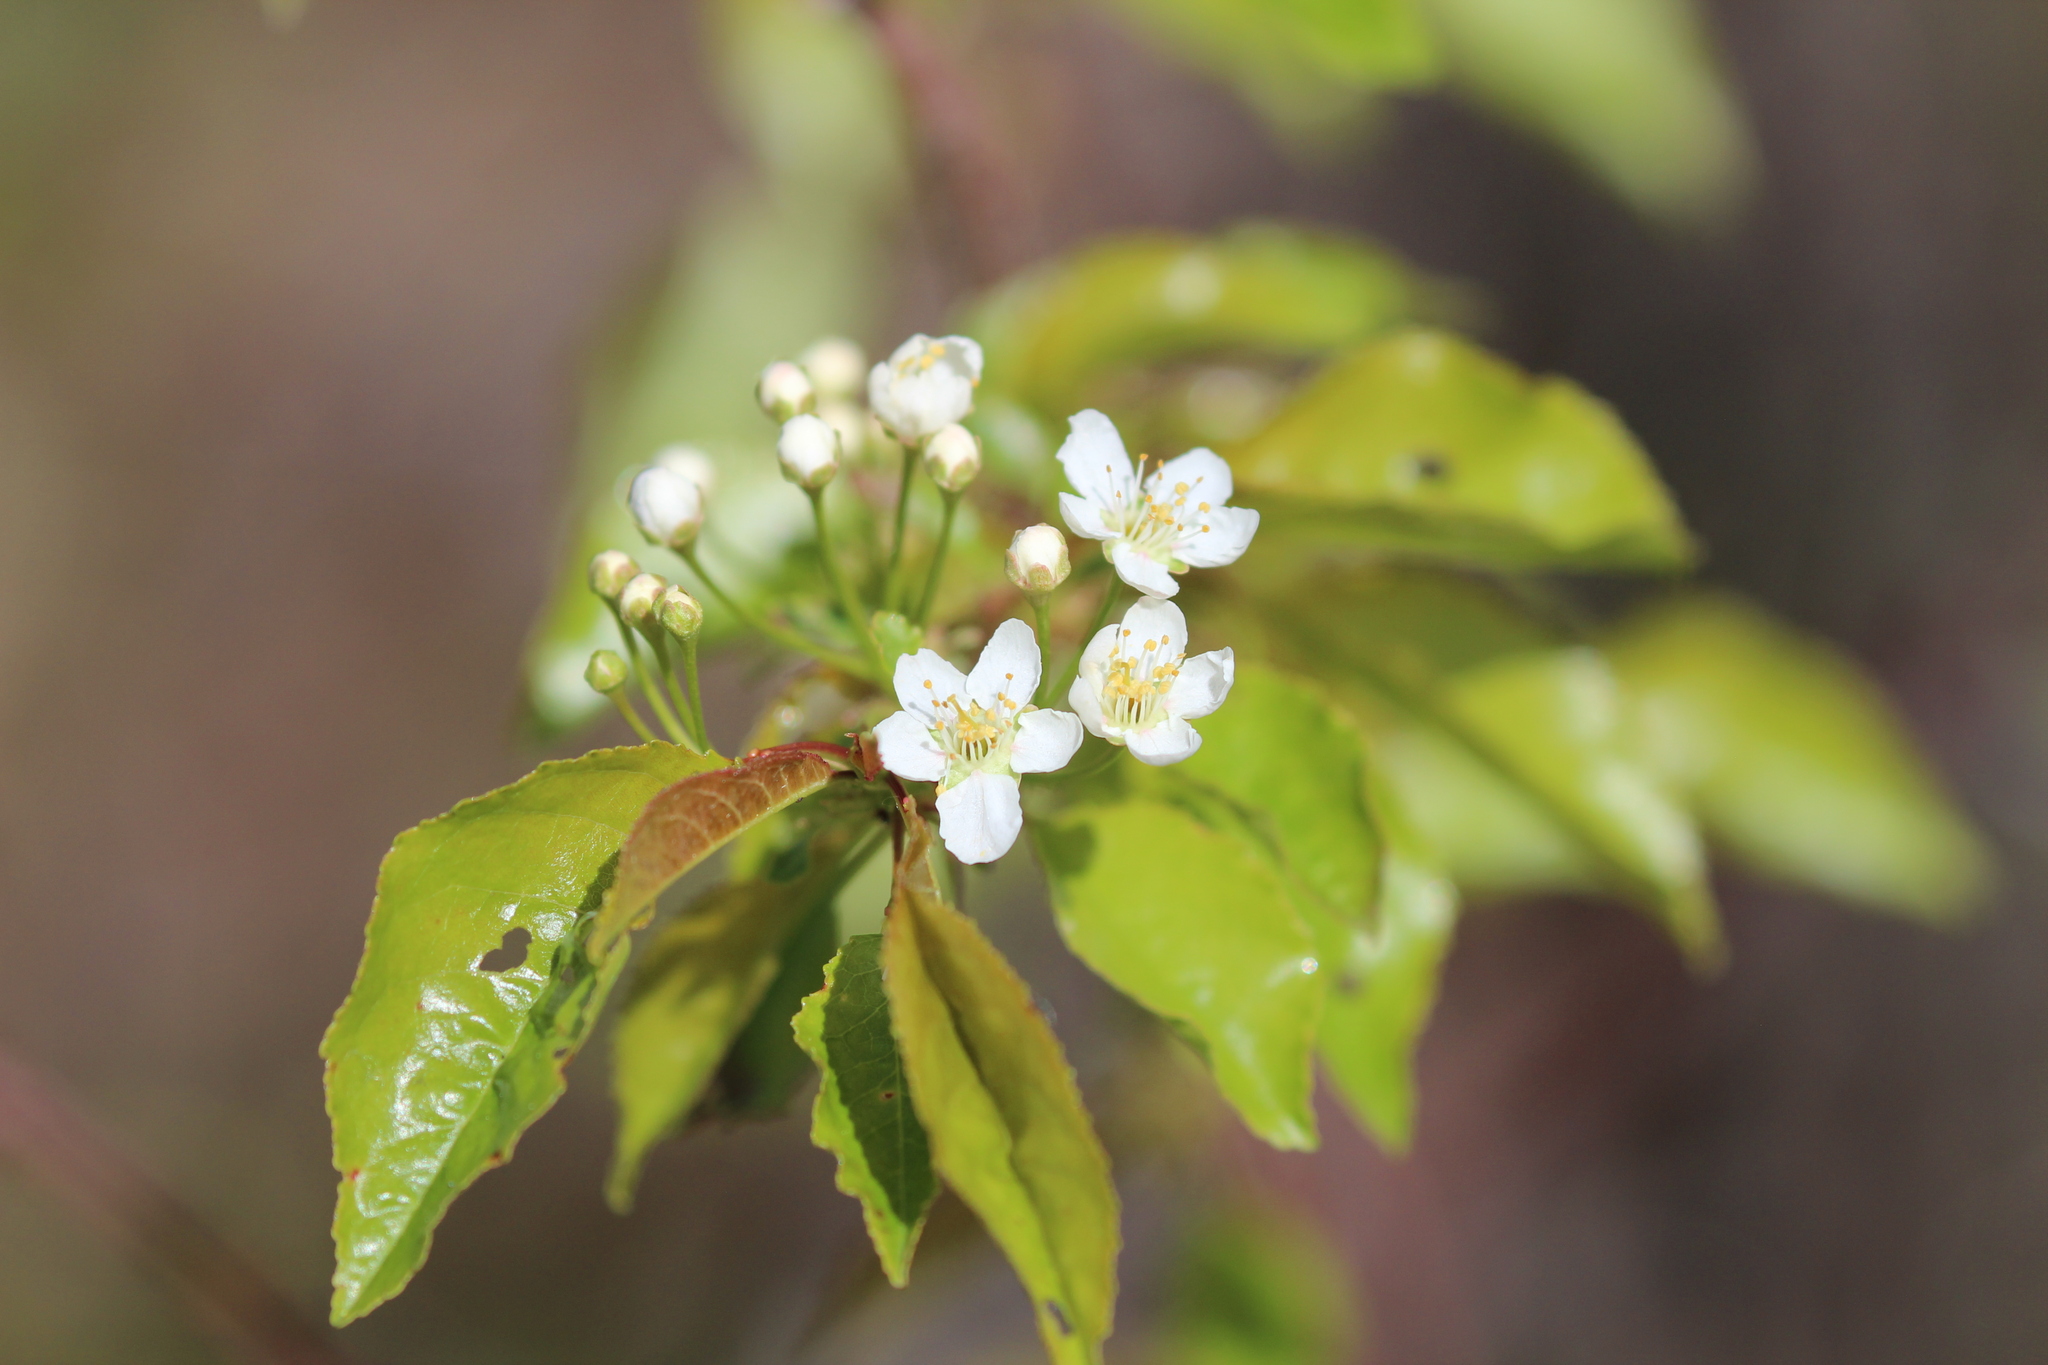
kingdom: Plantae
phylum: Tracheophyta
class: Magnoliopsida
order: Rosales
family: Rosaceae
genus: Prunus
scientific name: Prunus pensylvanica
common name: Pin cherry
